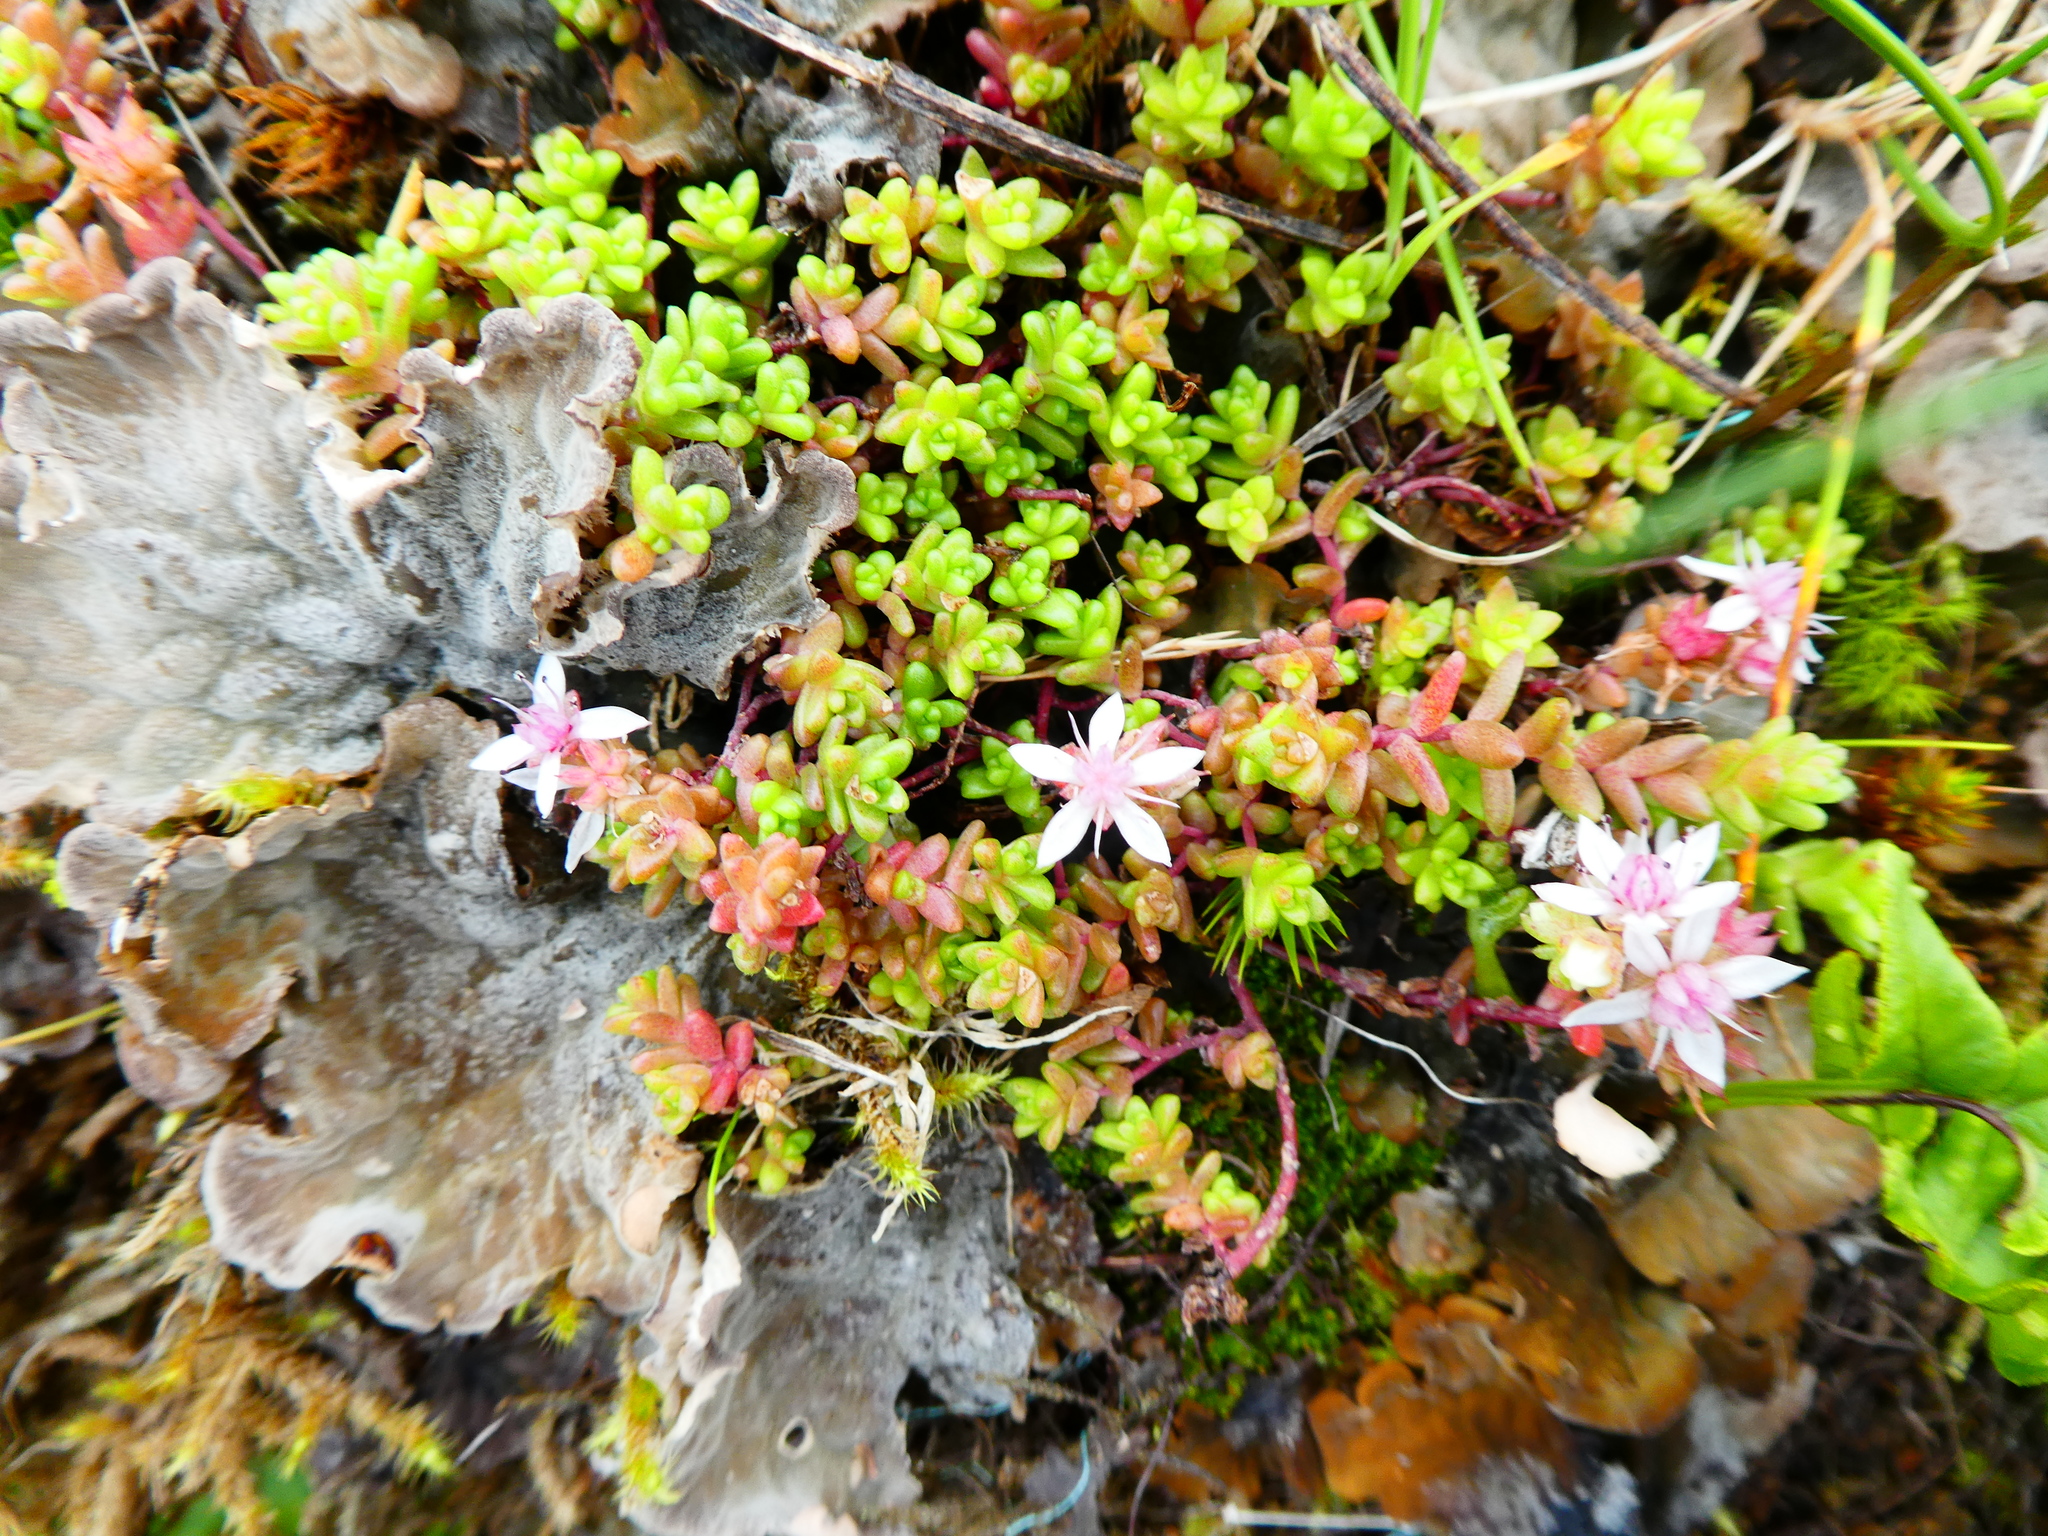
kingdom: Plantae
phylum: Tracheophyta
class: Magnoliopsida
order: Saxifragales
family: Crassulaceae
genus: Sedum
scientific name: Sedum anglicum
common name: English stonecrop
